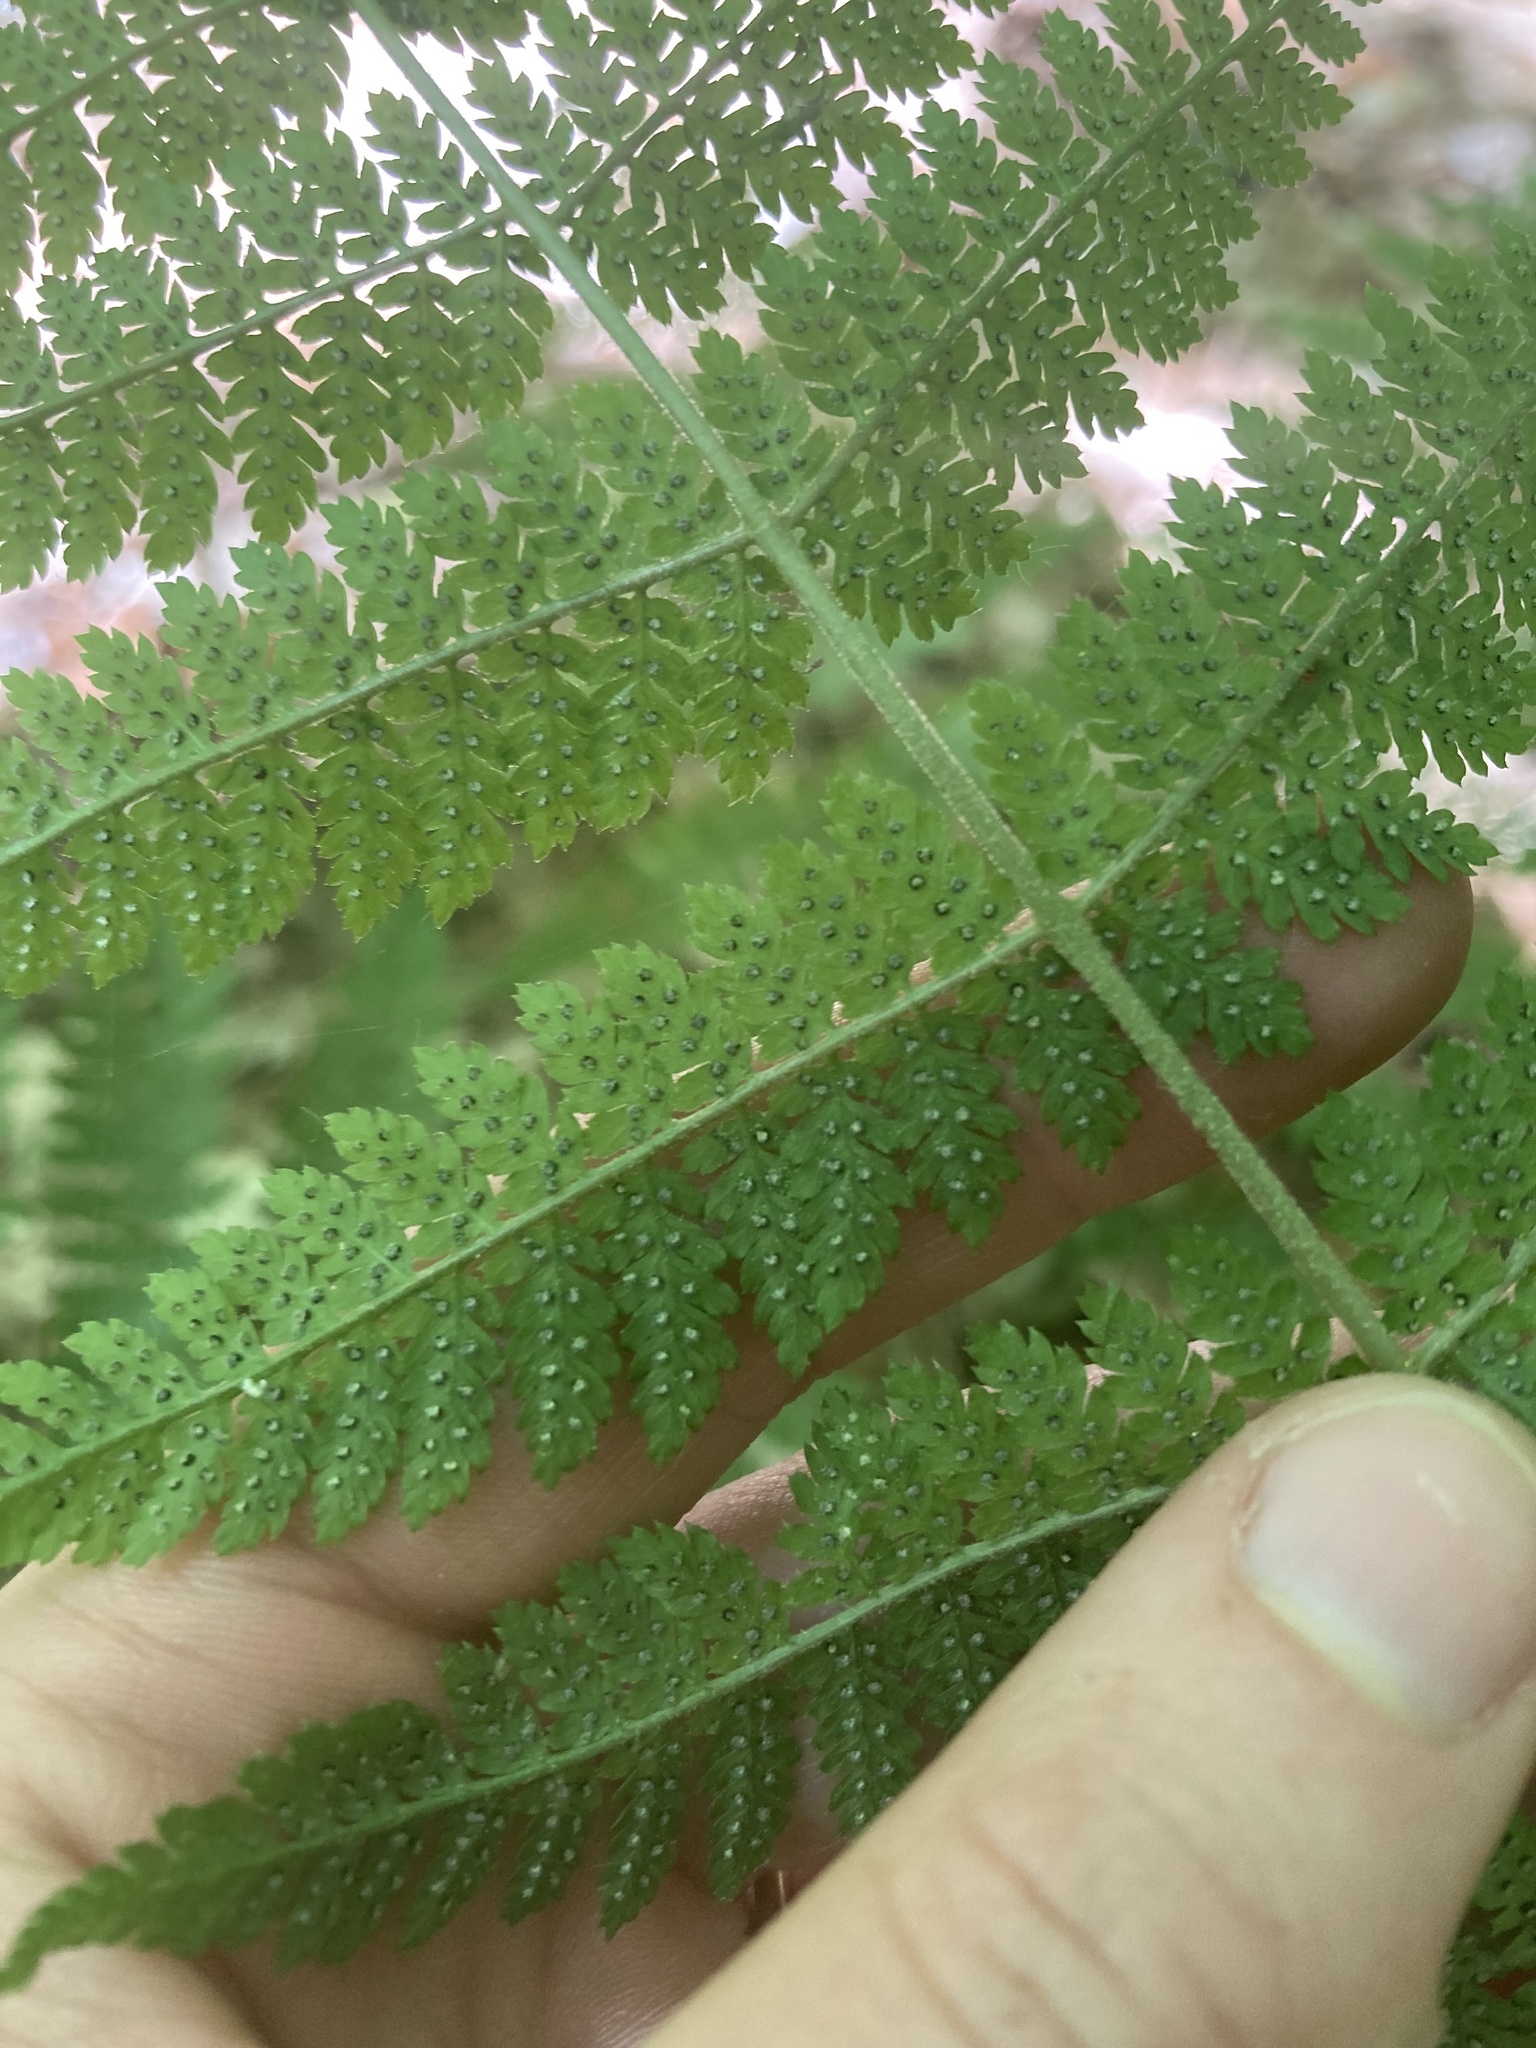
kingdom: Plantae
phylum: Tracheophyta
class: Polypodiopsida
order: Polypodiales
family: Dryopteridaceae
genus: Dryopteris
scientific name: Dryopteris intermedia
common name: Evergreen wood fern
